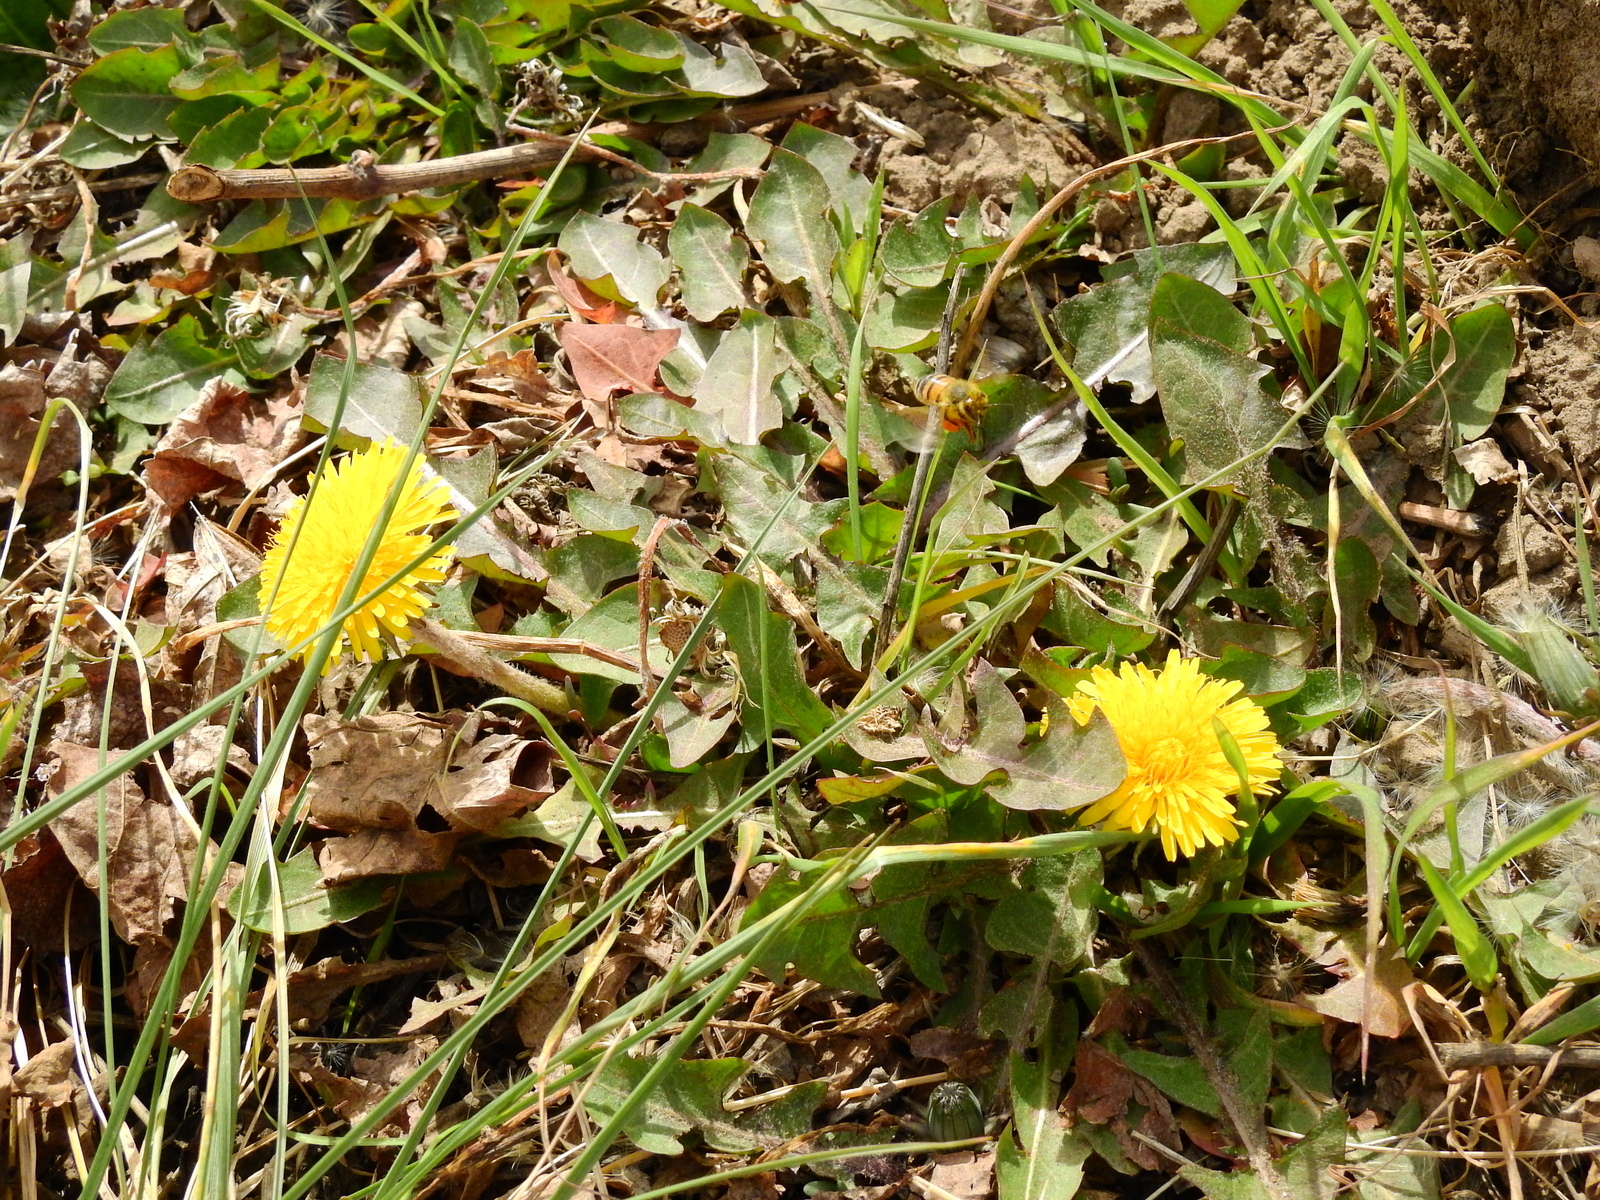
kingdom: Plantae
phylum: Tracheophyta
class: Magnoliopsida
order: Asterales
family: Asteraceae
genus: Taraxacum
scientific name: Taraxacum officinale
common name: Common dandelion
